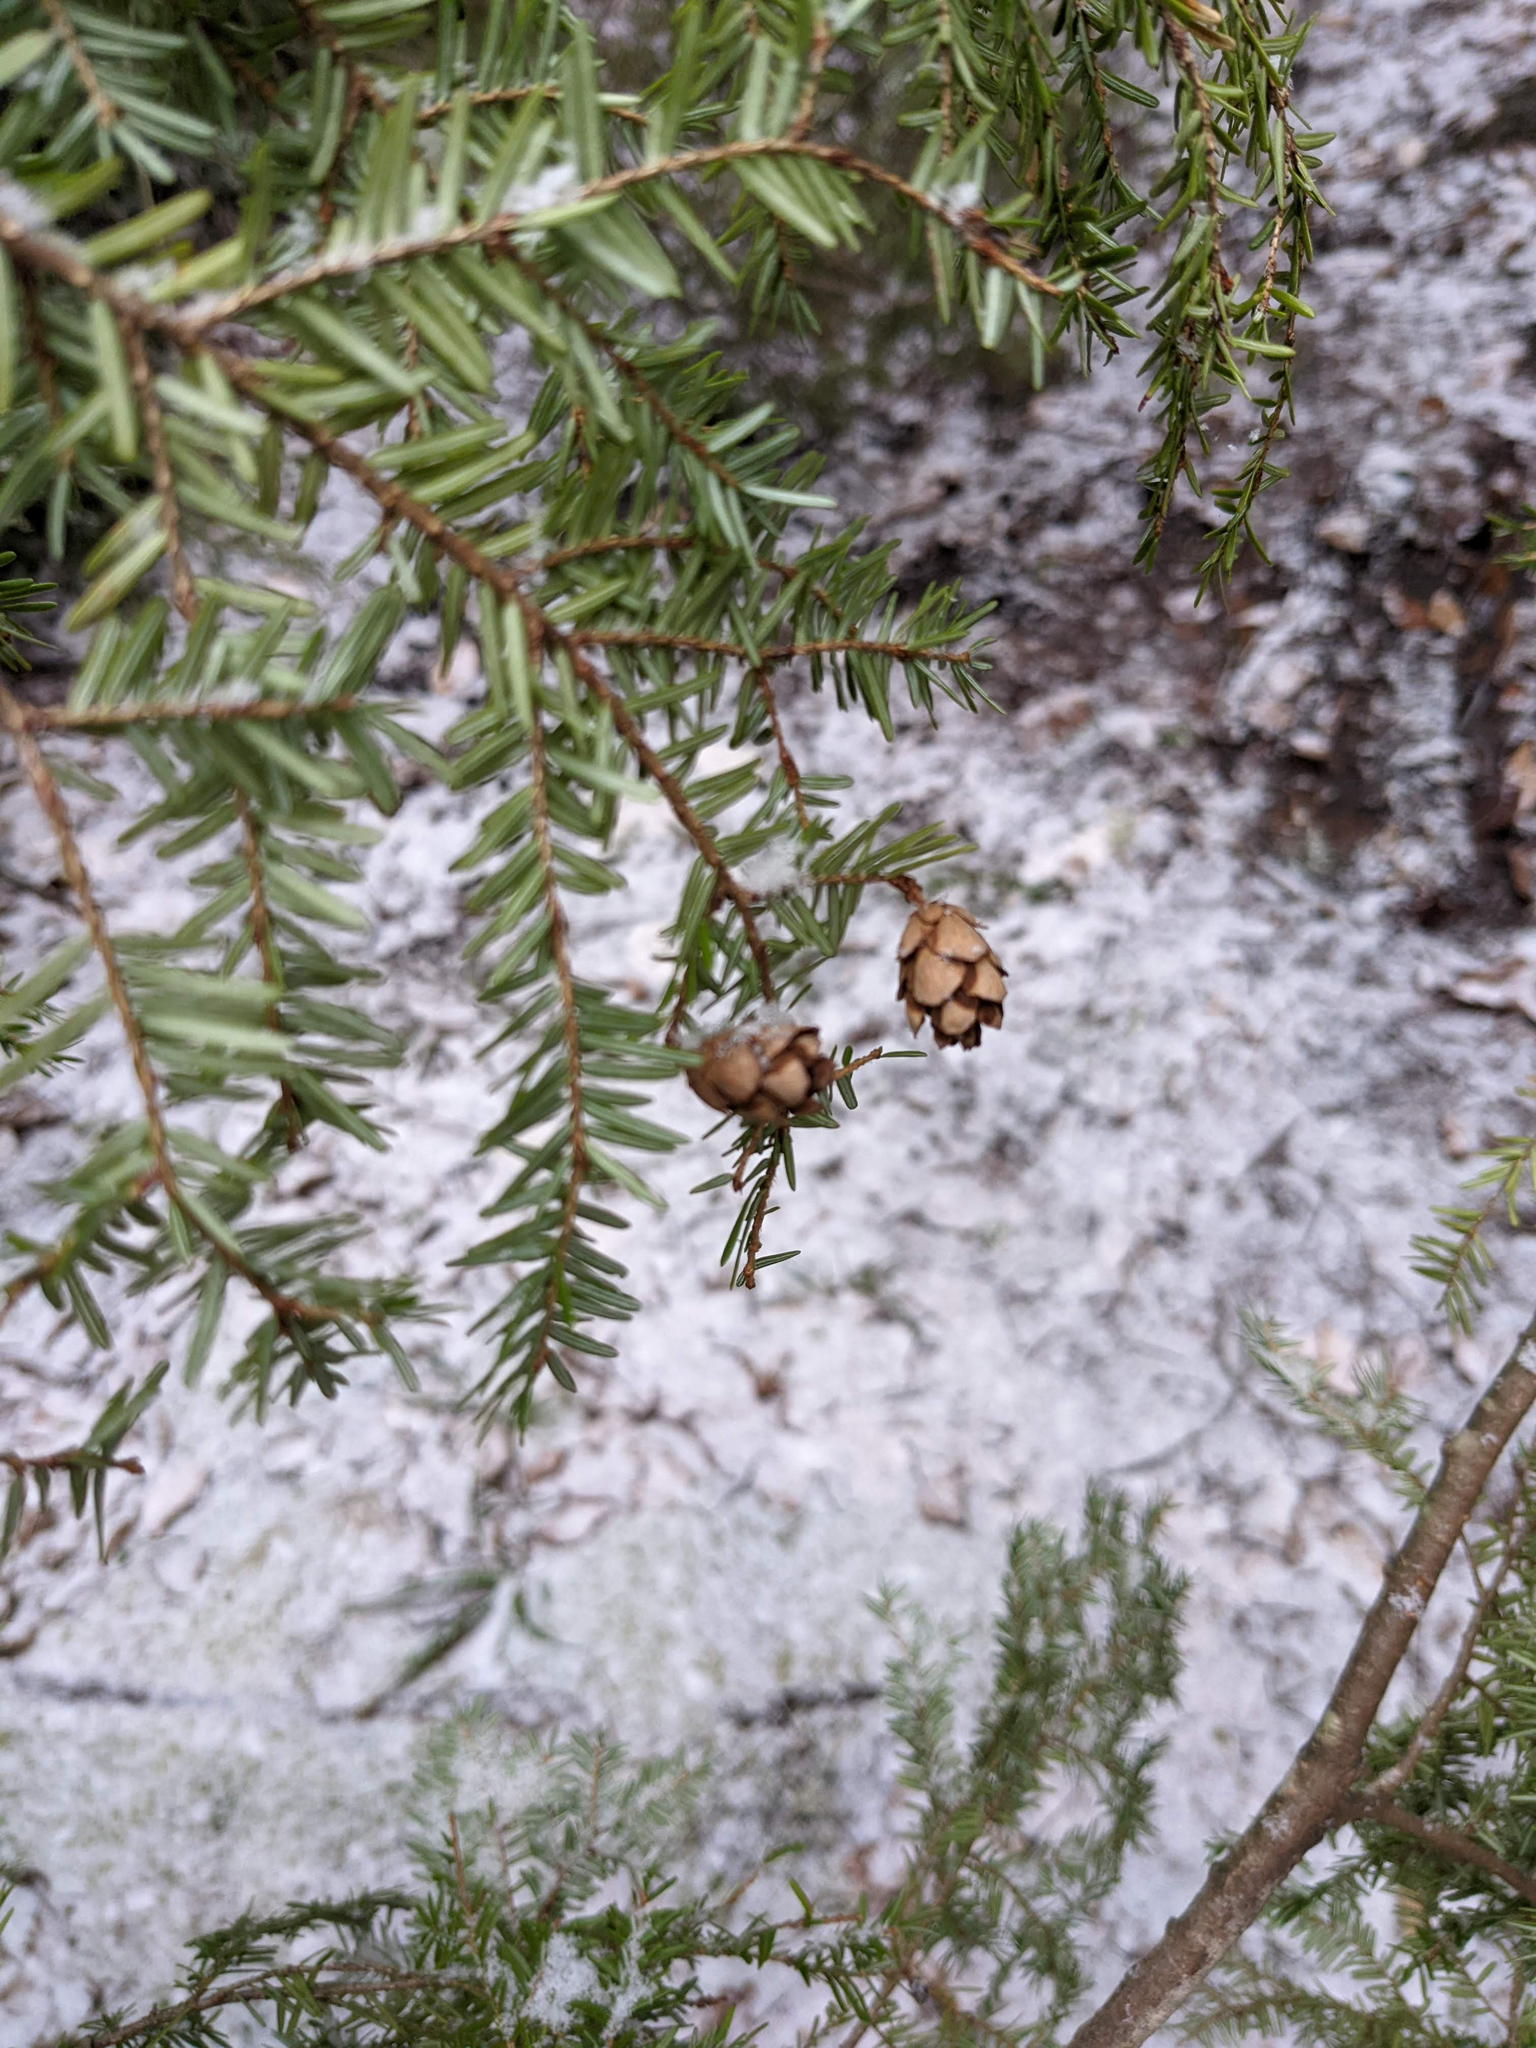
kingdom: Plantae
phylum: Tracheophyta
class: Pinopsida
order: Pinales
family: Pinaceae
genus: Tsuga
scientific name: Tsuga canadensis
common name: Eastern hemlock
